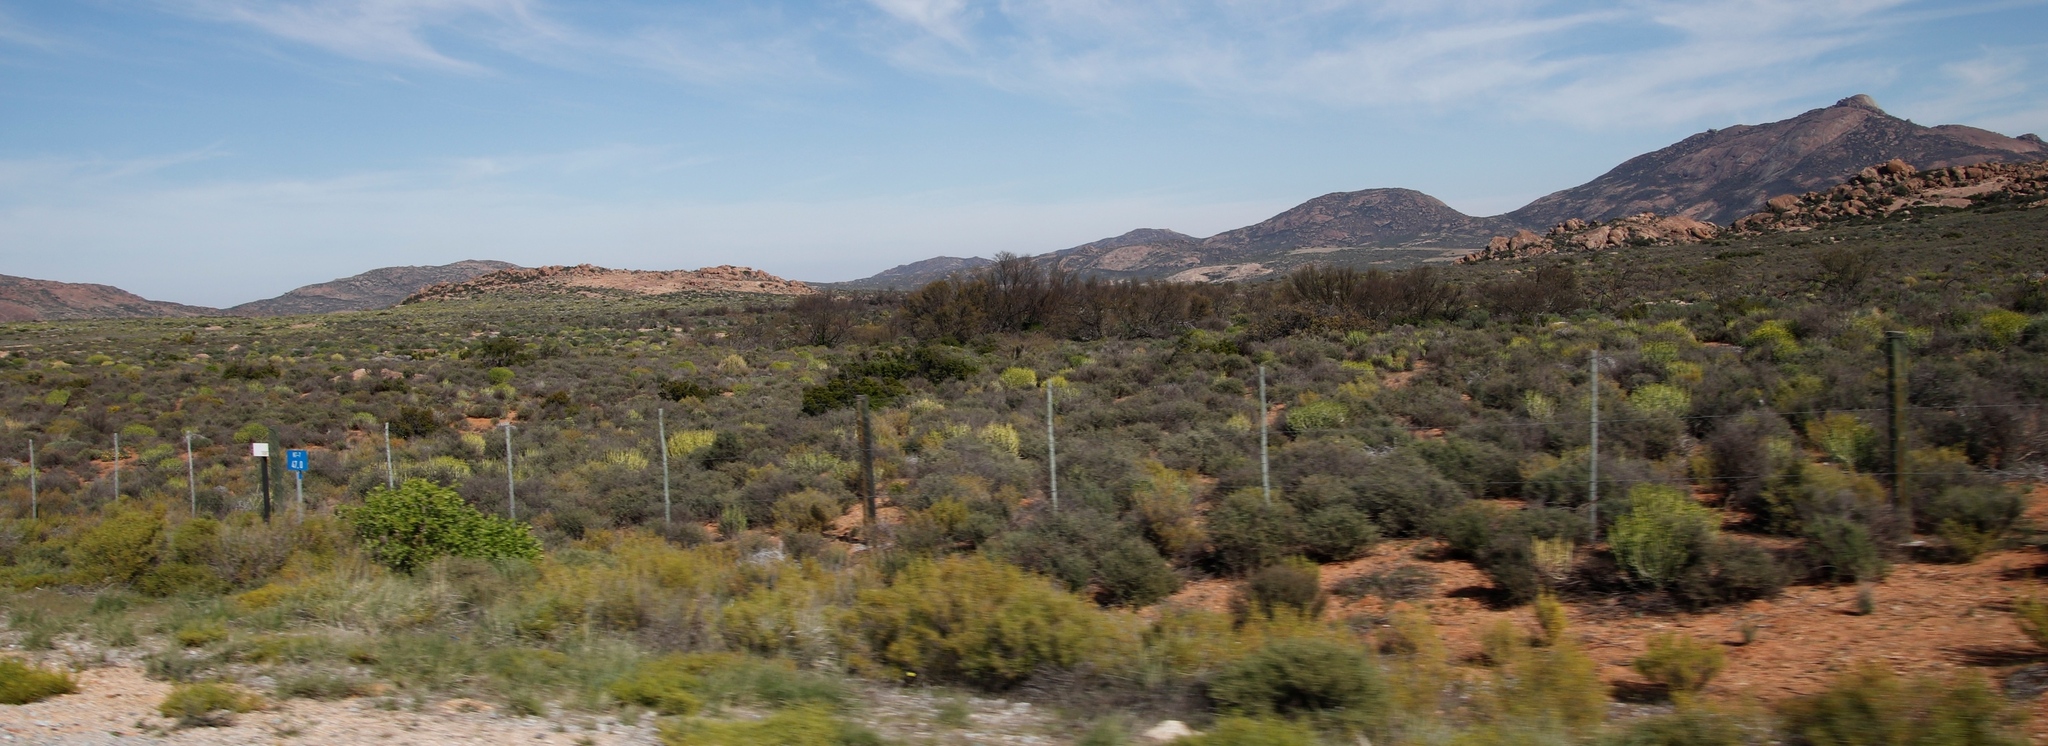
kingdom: Plantae
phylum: Tracheophyta
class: Magnoliopsida
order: Fabales
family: Fabaceae
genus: Vachellia
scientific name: Vachellia karroo
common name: Sweet thorn
